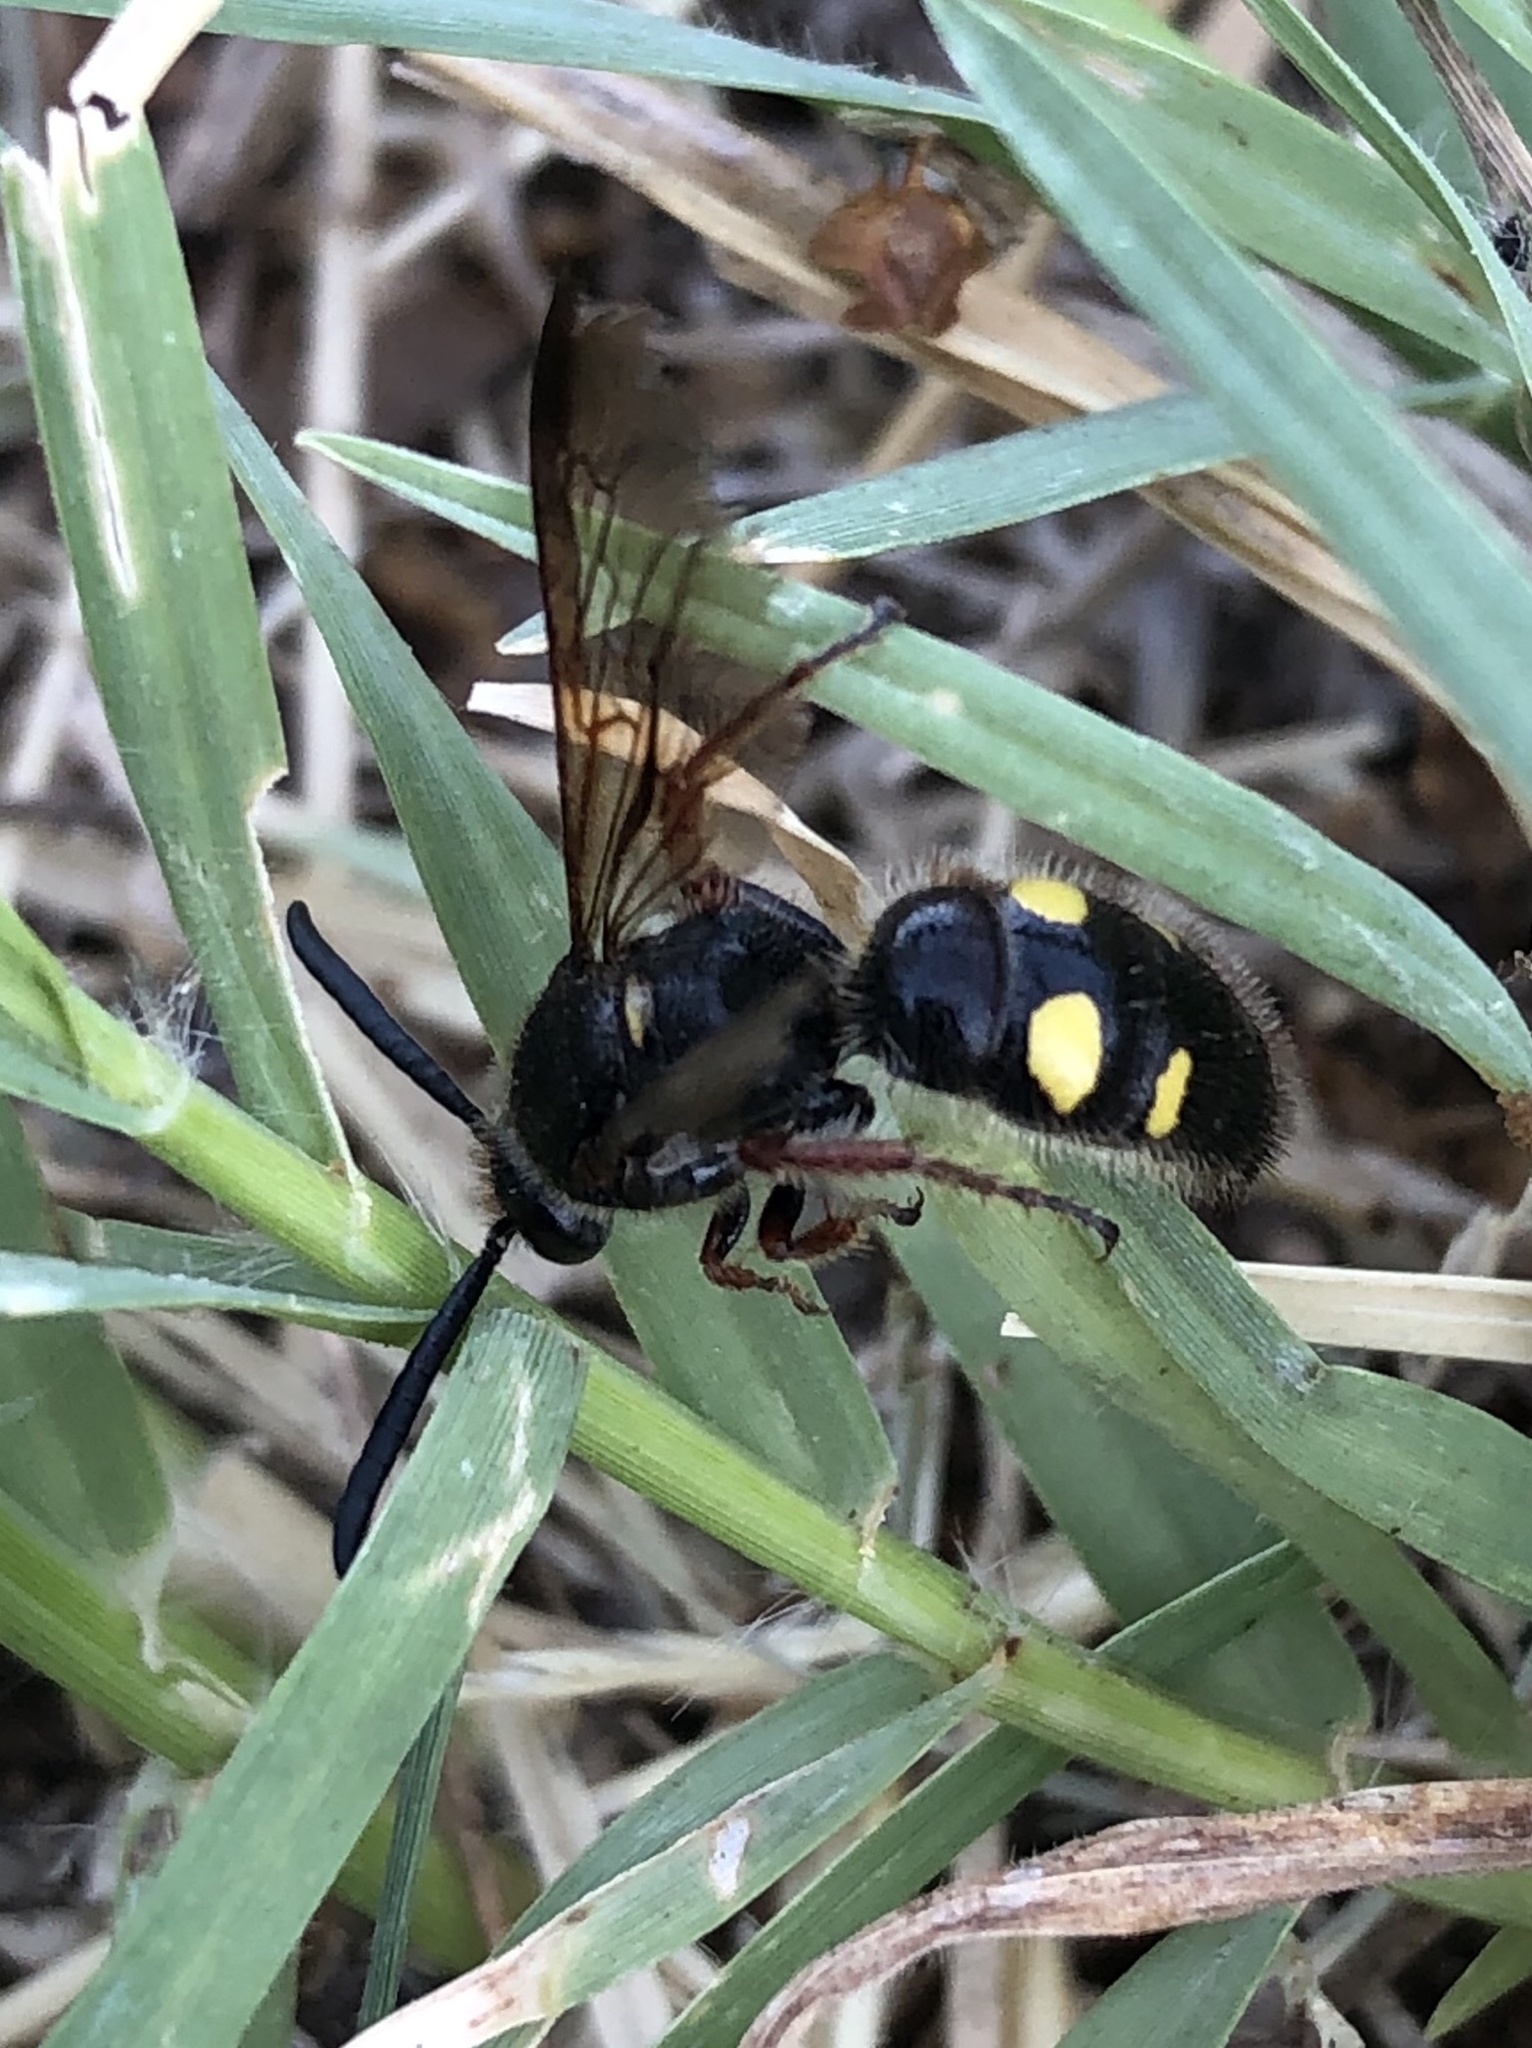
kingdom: Animalia
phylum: Arthropoda
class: Insecta
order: Hymenoptera
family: Scoliidae
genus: Scolia
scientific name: Scolia nobilitata
